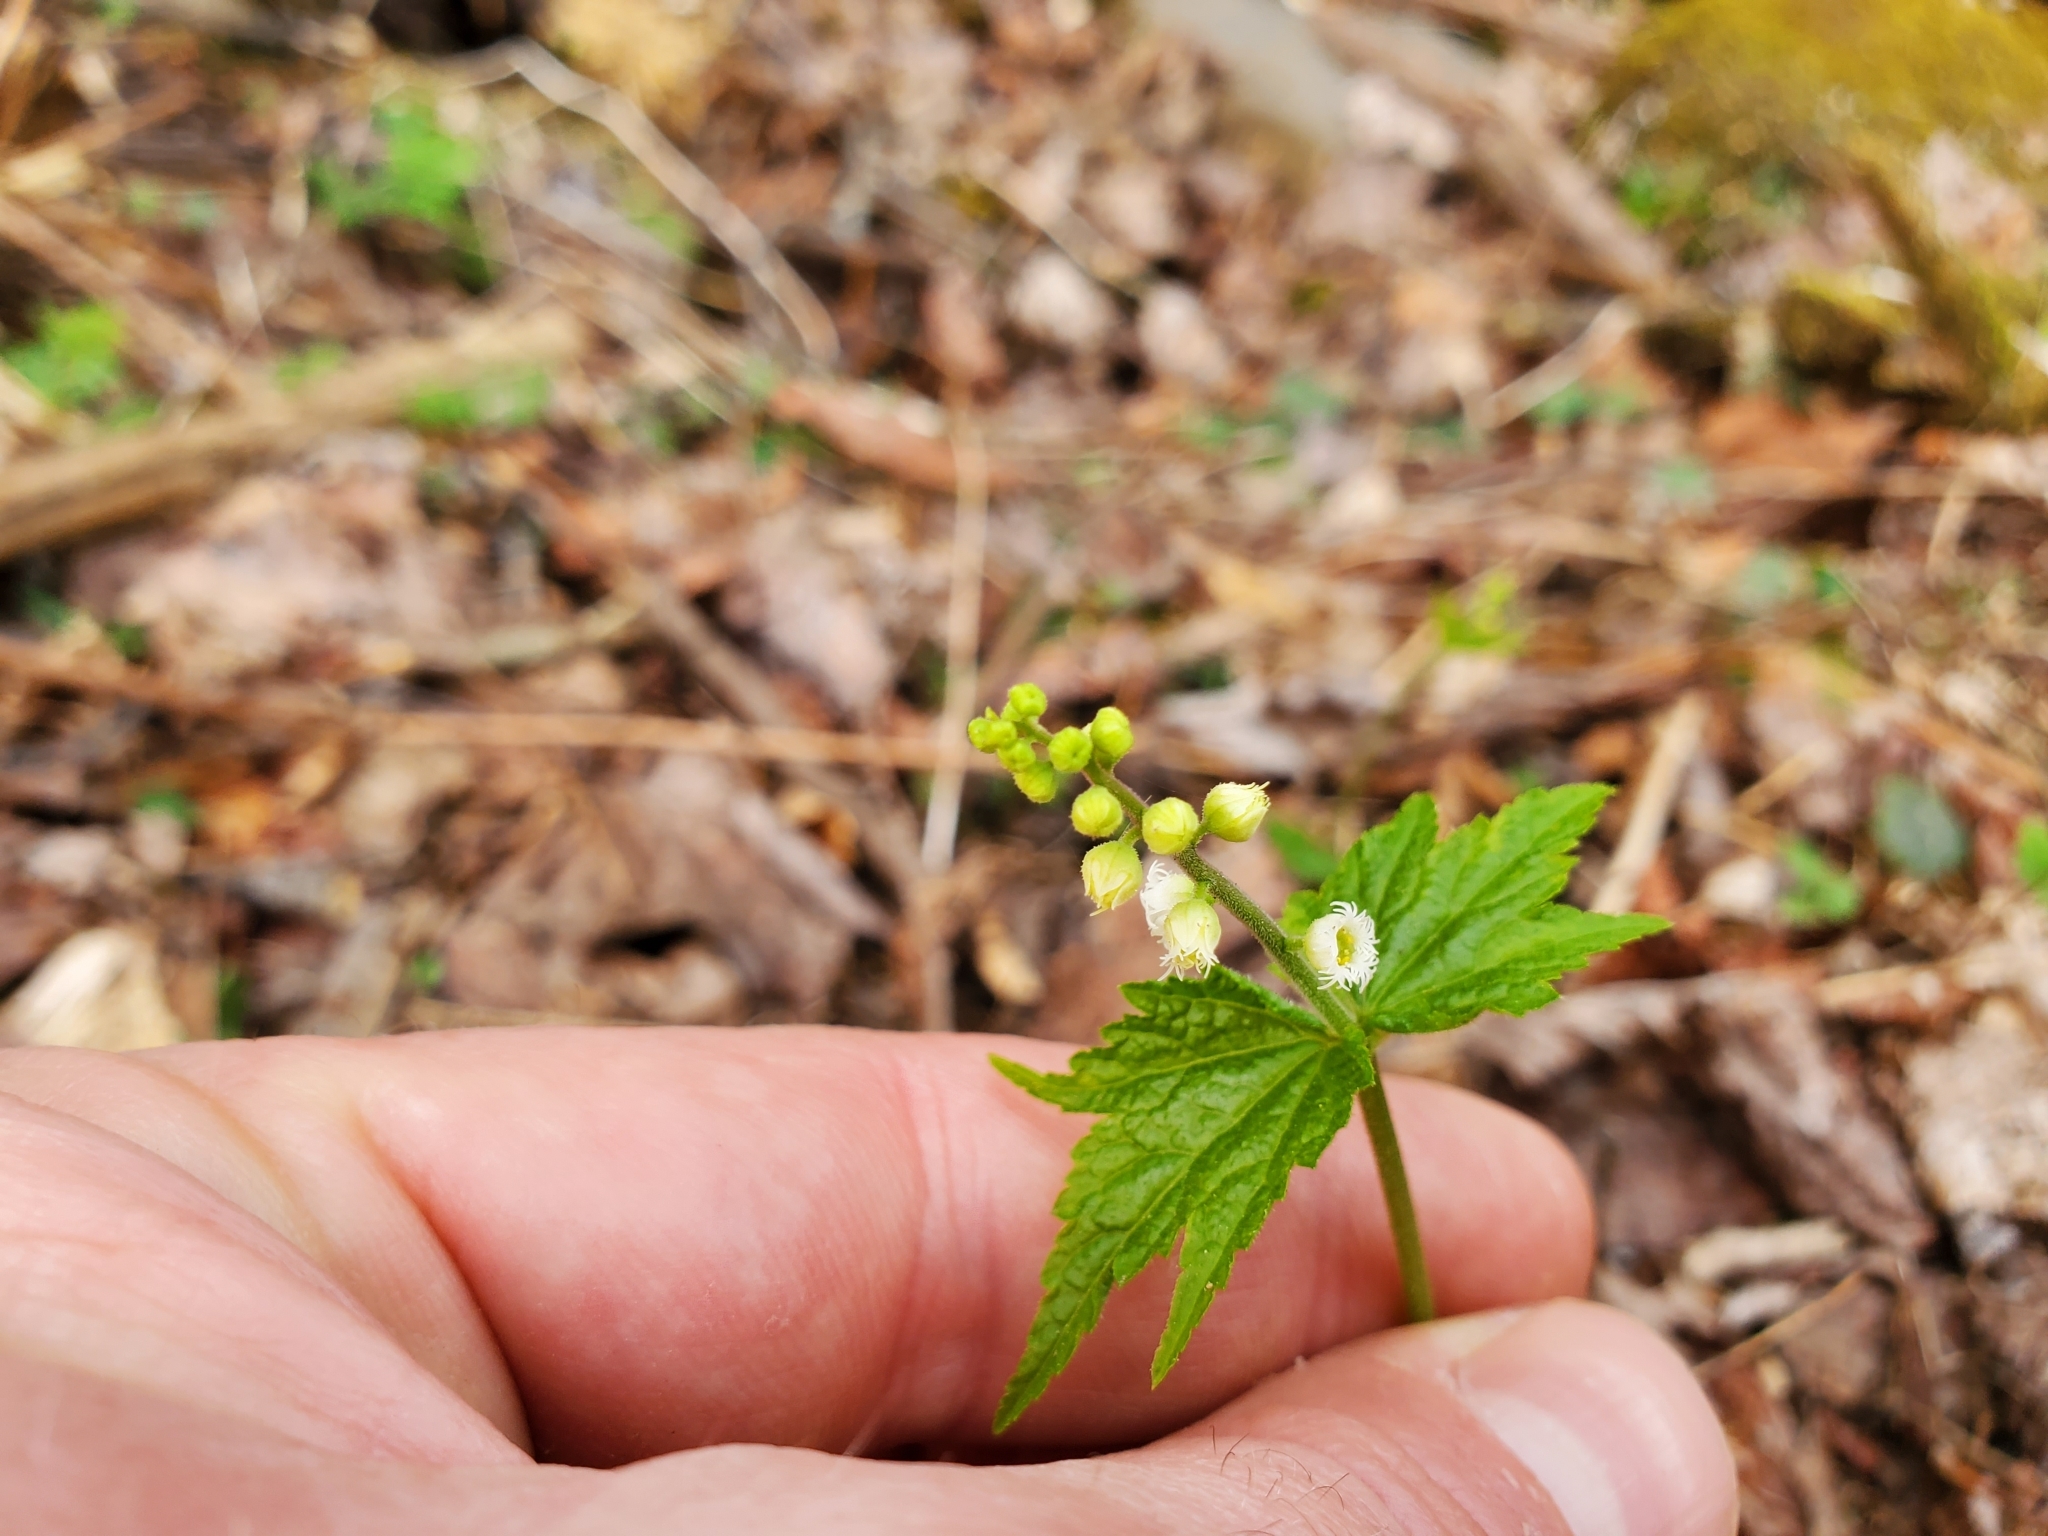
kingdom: Plantae
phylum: Tracheophyta
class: Magnoliopsida
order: Saxifragales
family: Saxifragaceae
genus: Mitella
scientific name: Mitella diphylla
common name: Coolwort
